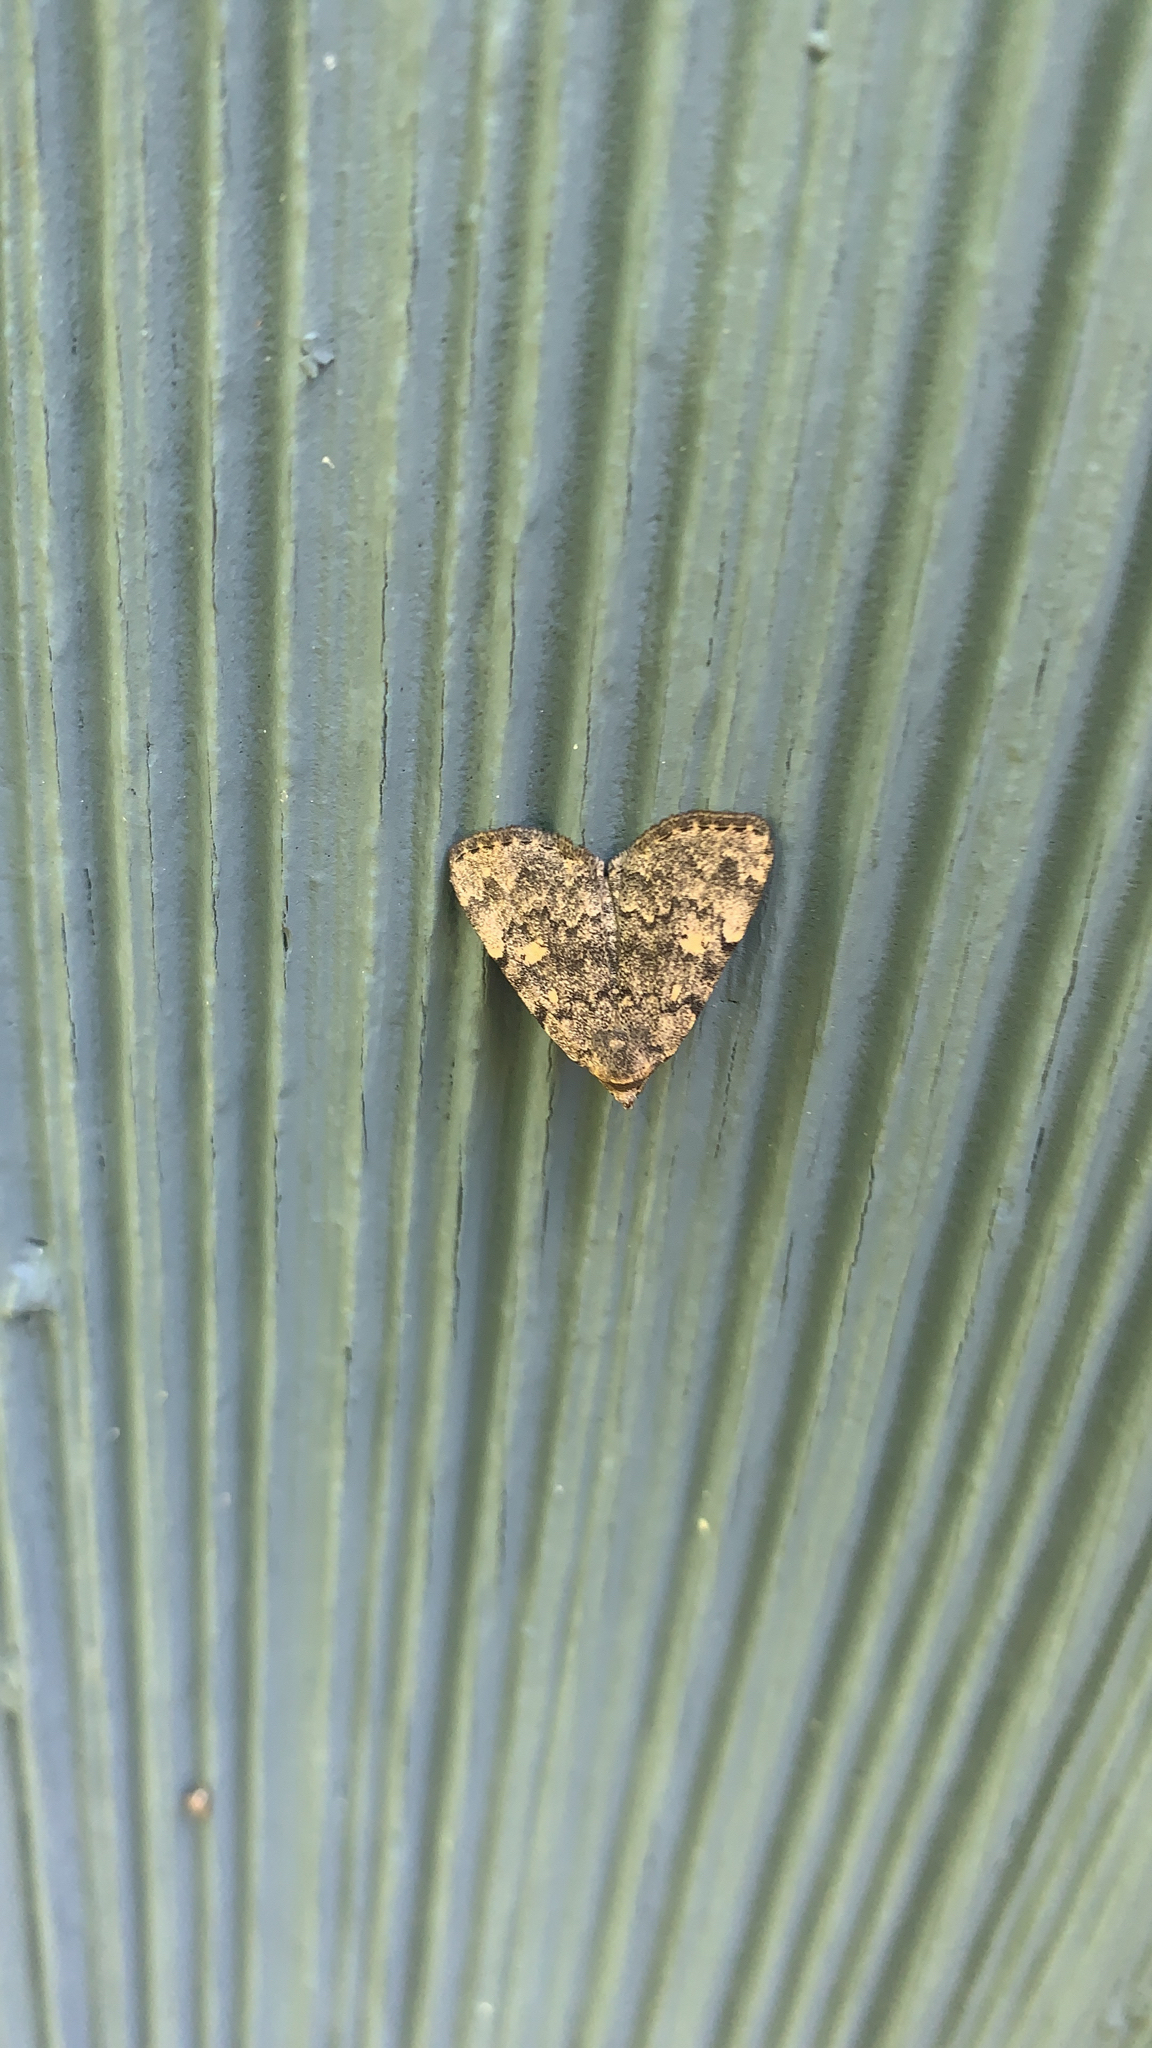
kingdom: Animalia
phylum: Arthropoda
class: Insecta
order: Lepidoptera
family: Erebidae
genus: Idia
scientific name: Idia aemula
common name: Common idia moth
